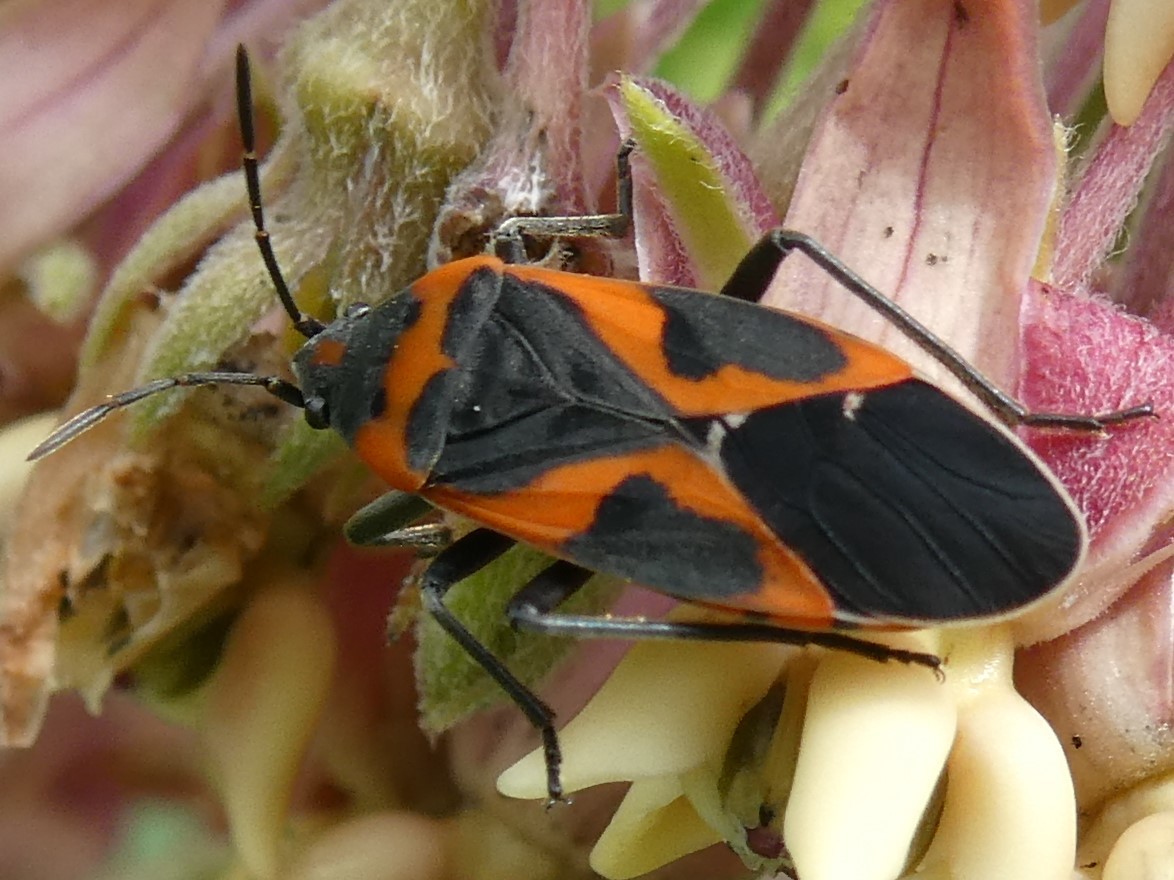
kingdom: Animalia
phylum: Arthropoda
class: Insecta
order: Hemiptera
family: Lygaeidae
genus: Lygaeus
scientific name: Lygaeus kalmii
